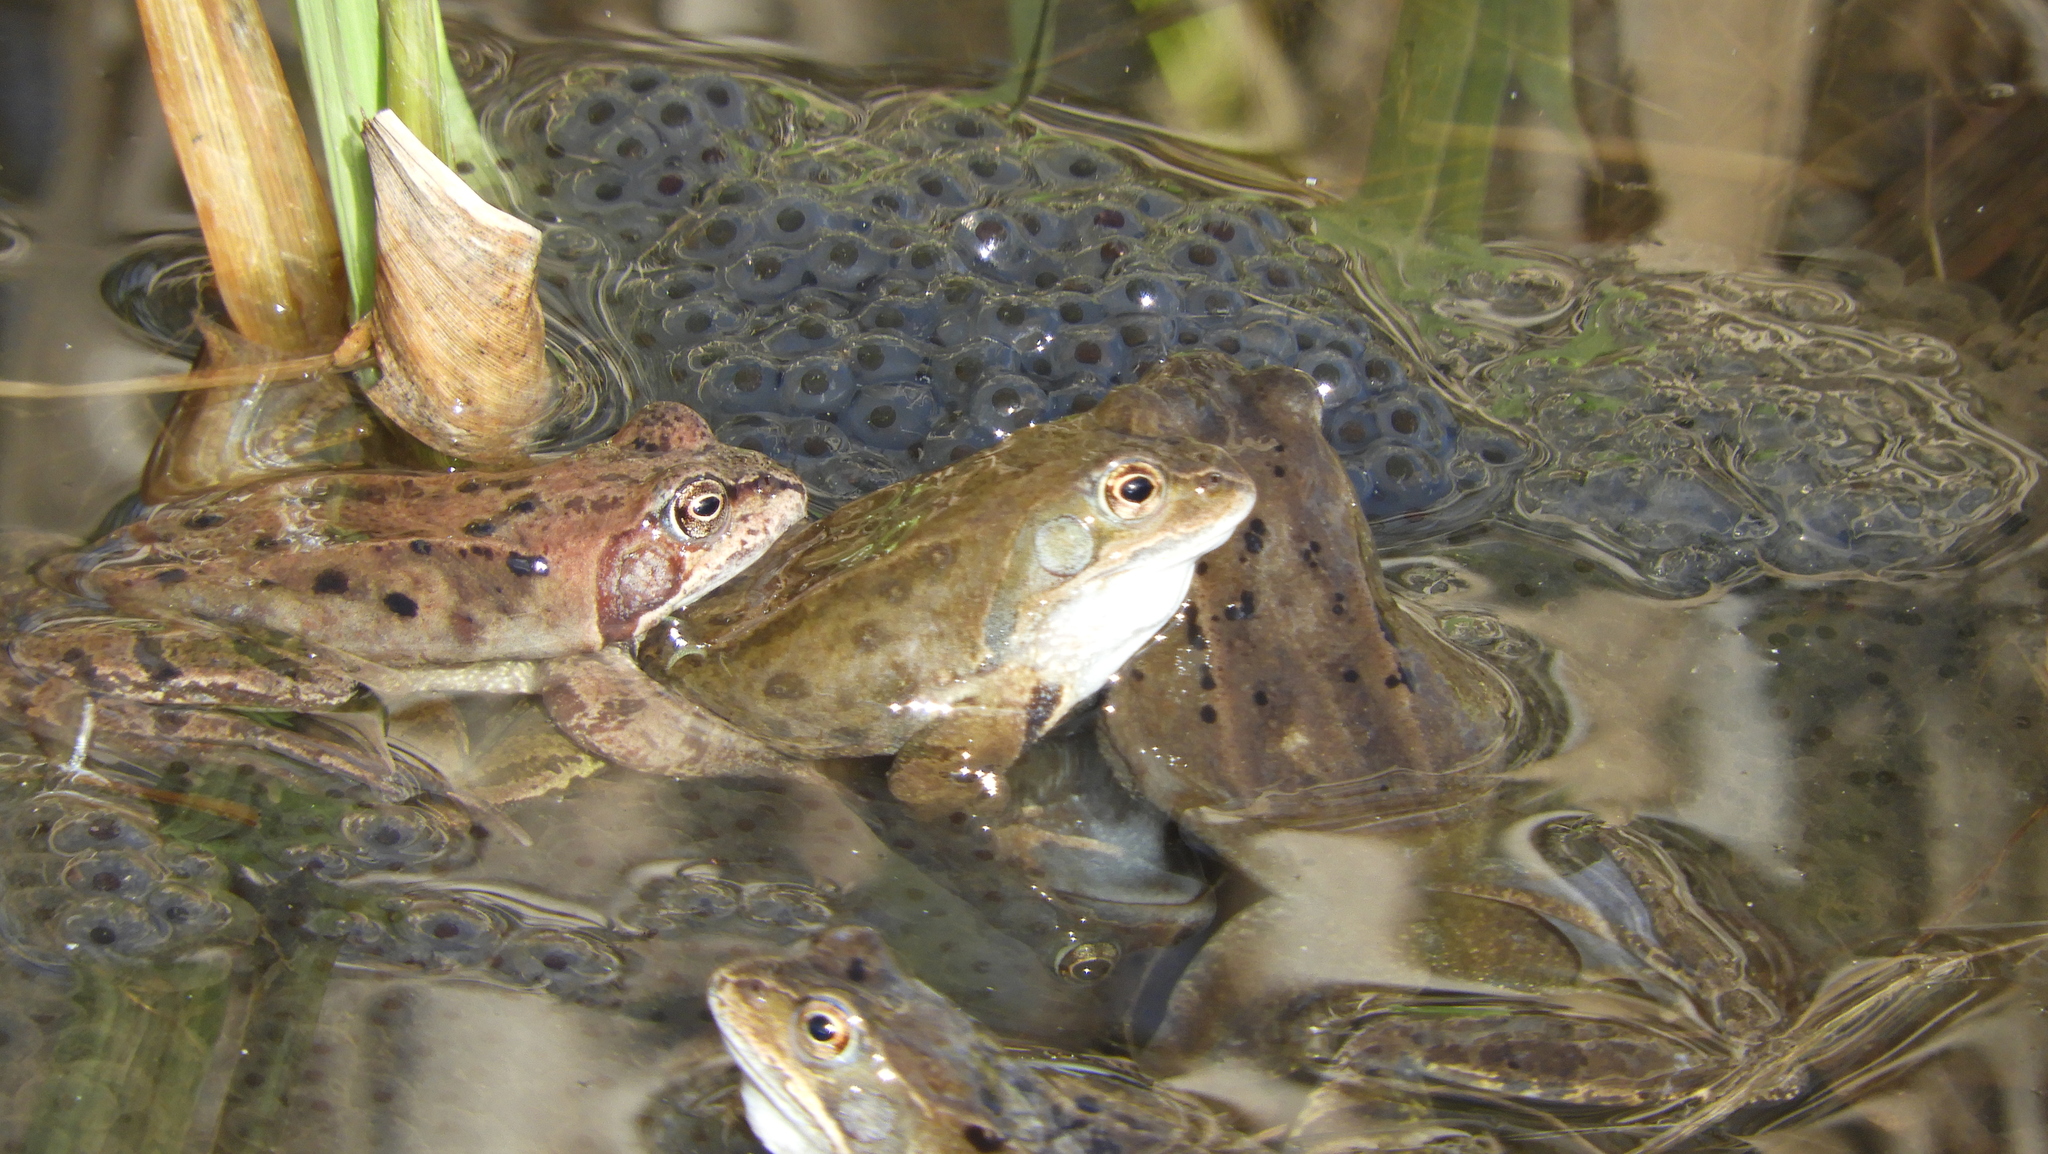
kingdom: Animalia
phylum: Chordata
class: Amphibia
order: Anura
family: Ranidae
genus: Rana
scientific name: Rana temporaria
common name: Common frog
